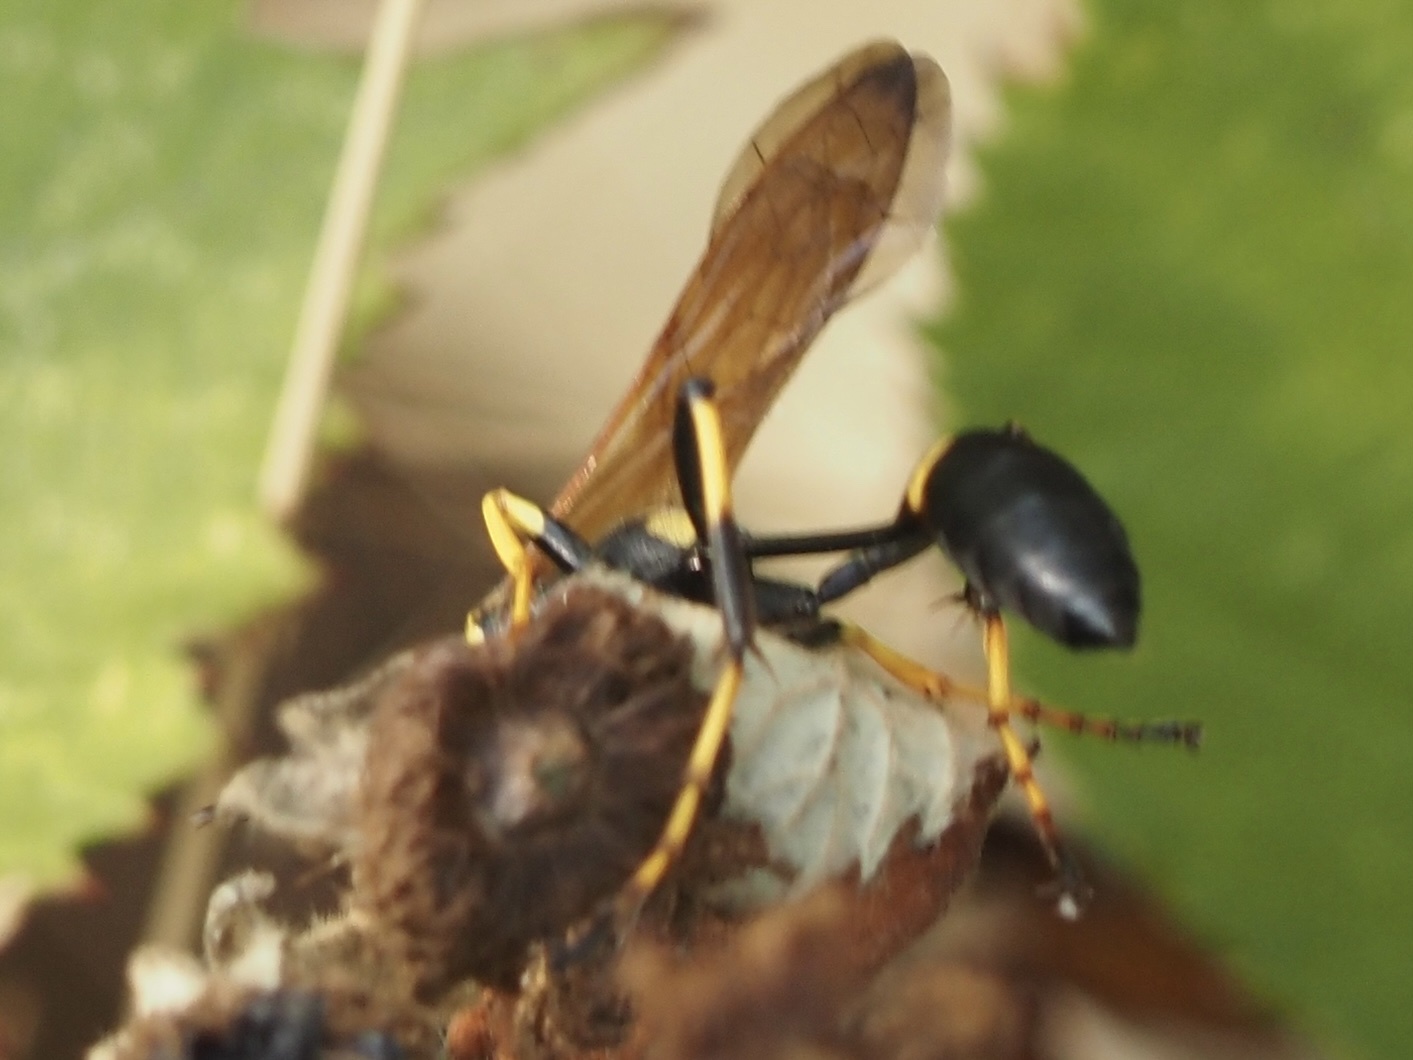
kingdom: Animalia
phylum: Arthropoda
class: Insecta
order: Hymenoptera
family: Sphecidae
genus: Sceliphron
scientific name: Sceliphron caementarium
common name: Mud dauber
